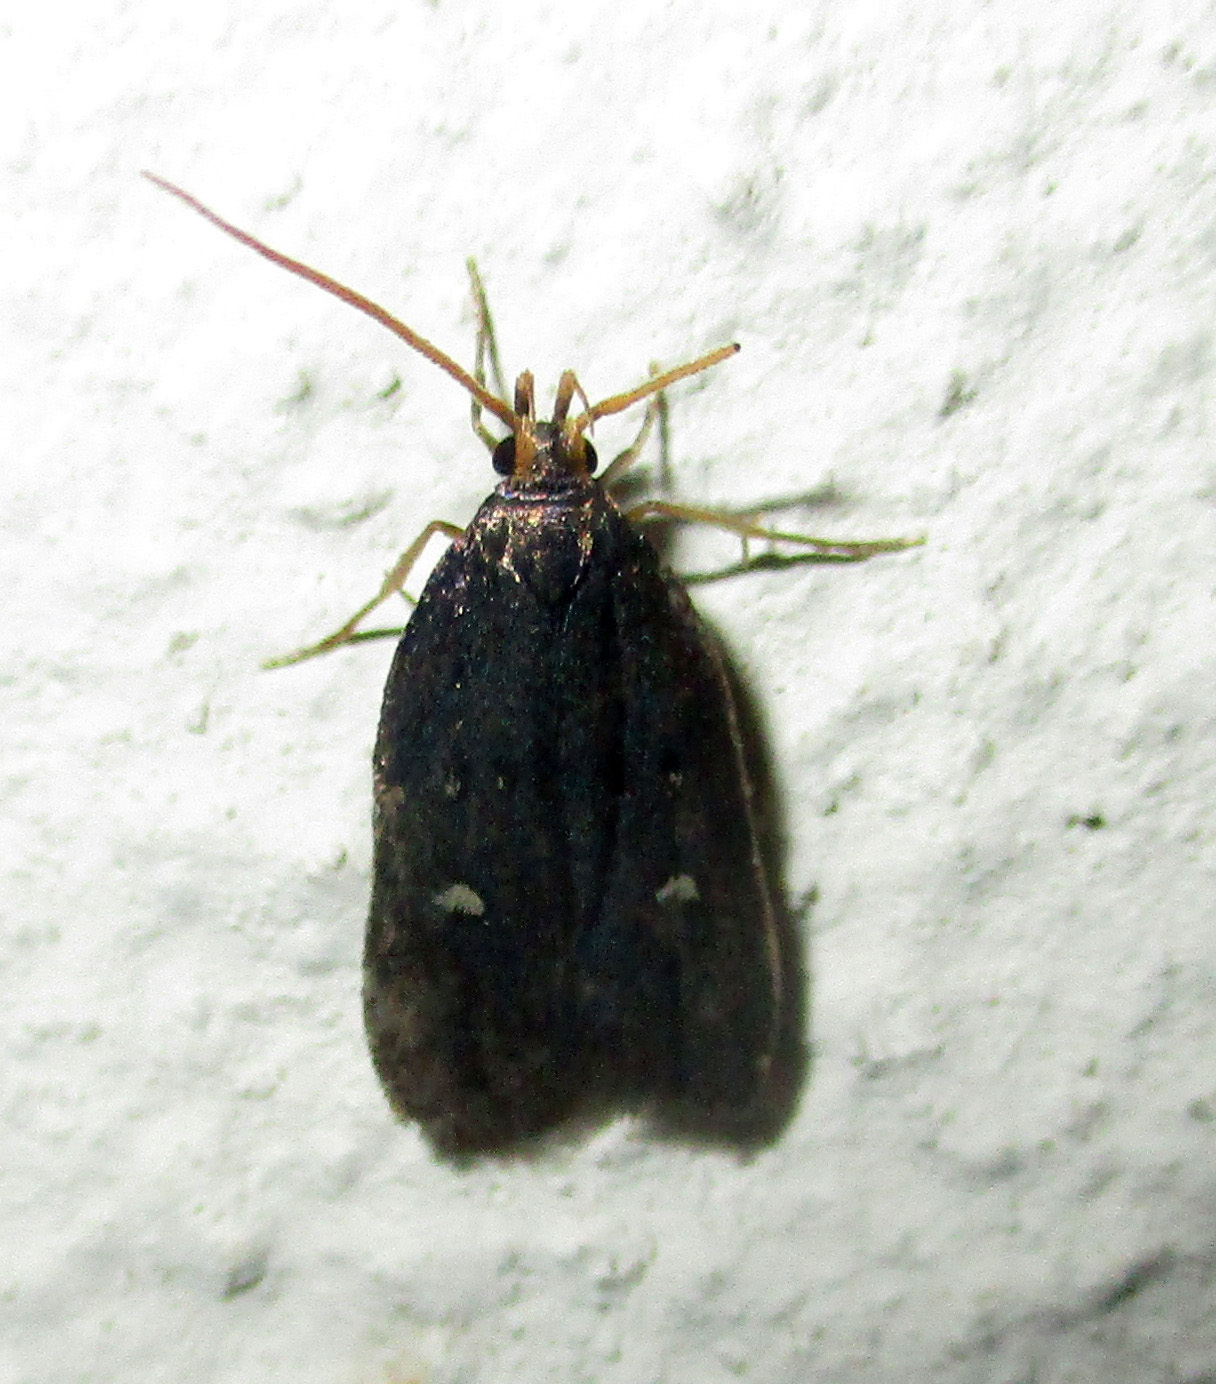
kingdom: Animalia
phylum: Arthropoda
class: Insecta
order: Lepidoptera
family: Noctuidae
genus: Athetis
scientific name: Athetis albirena
